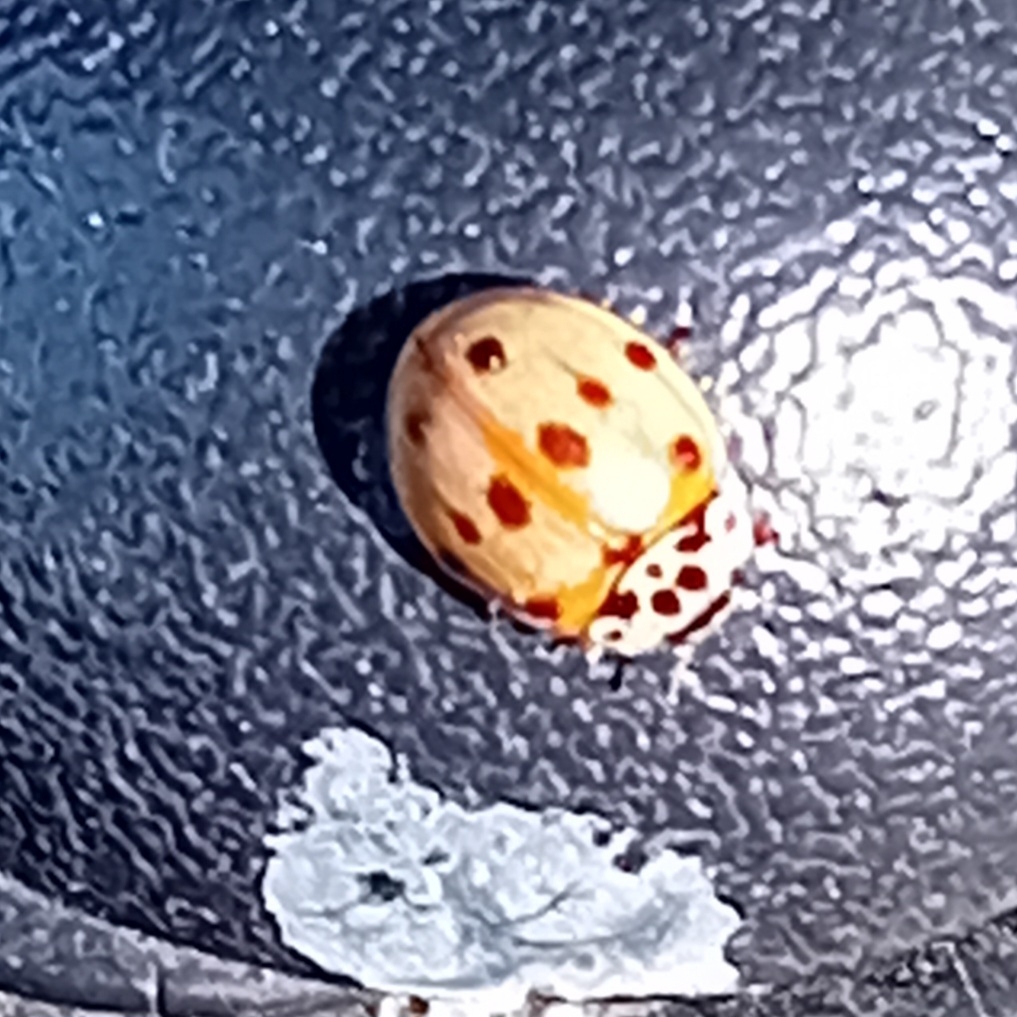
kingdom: Animalia
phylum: Arthropoda
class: Insecta
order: Coleoptera
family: Coccinellidae
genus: Adalia
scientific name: Adalia decempunctata
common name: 10-spot ladybird
